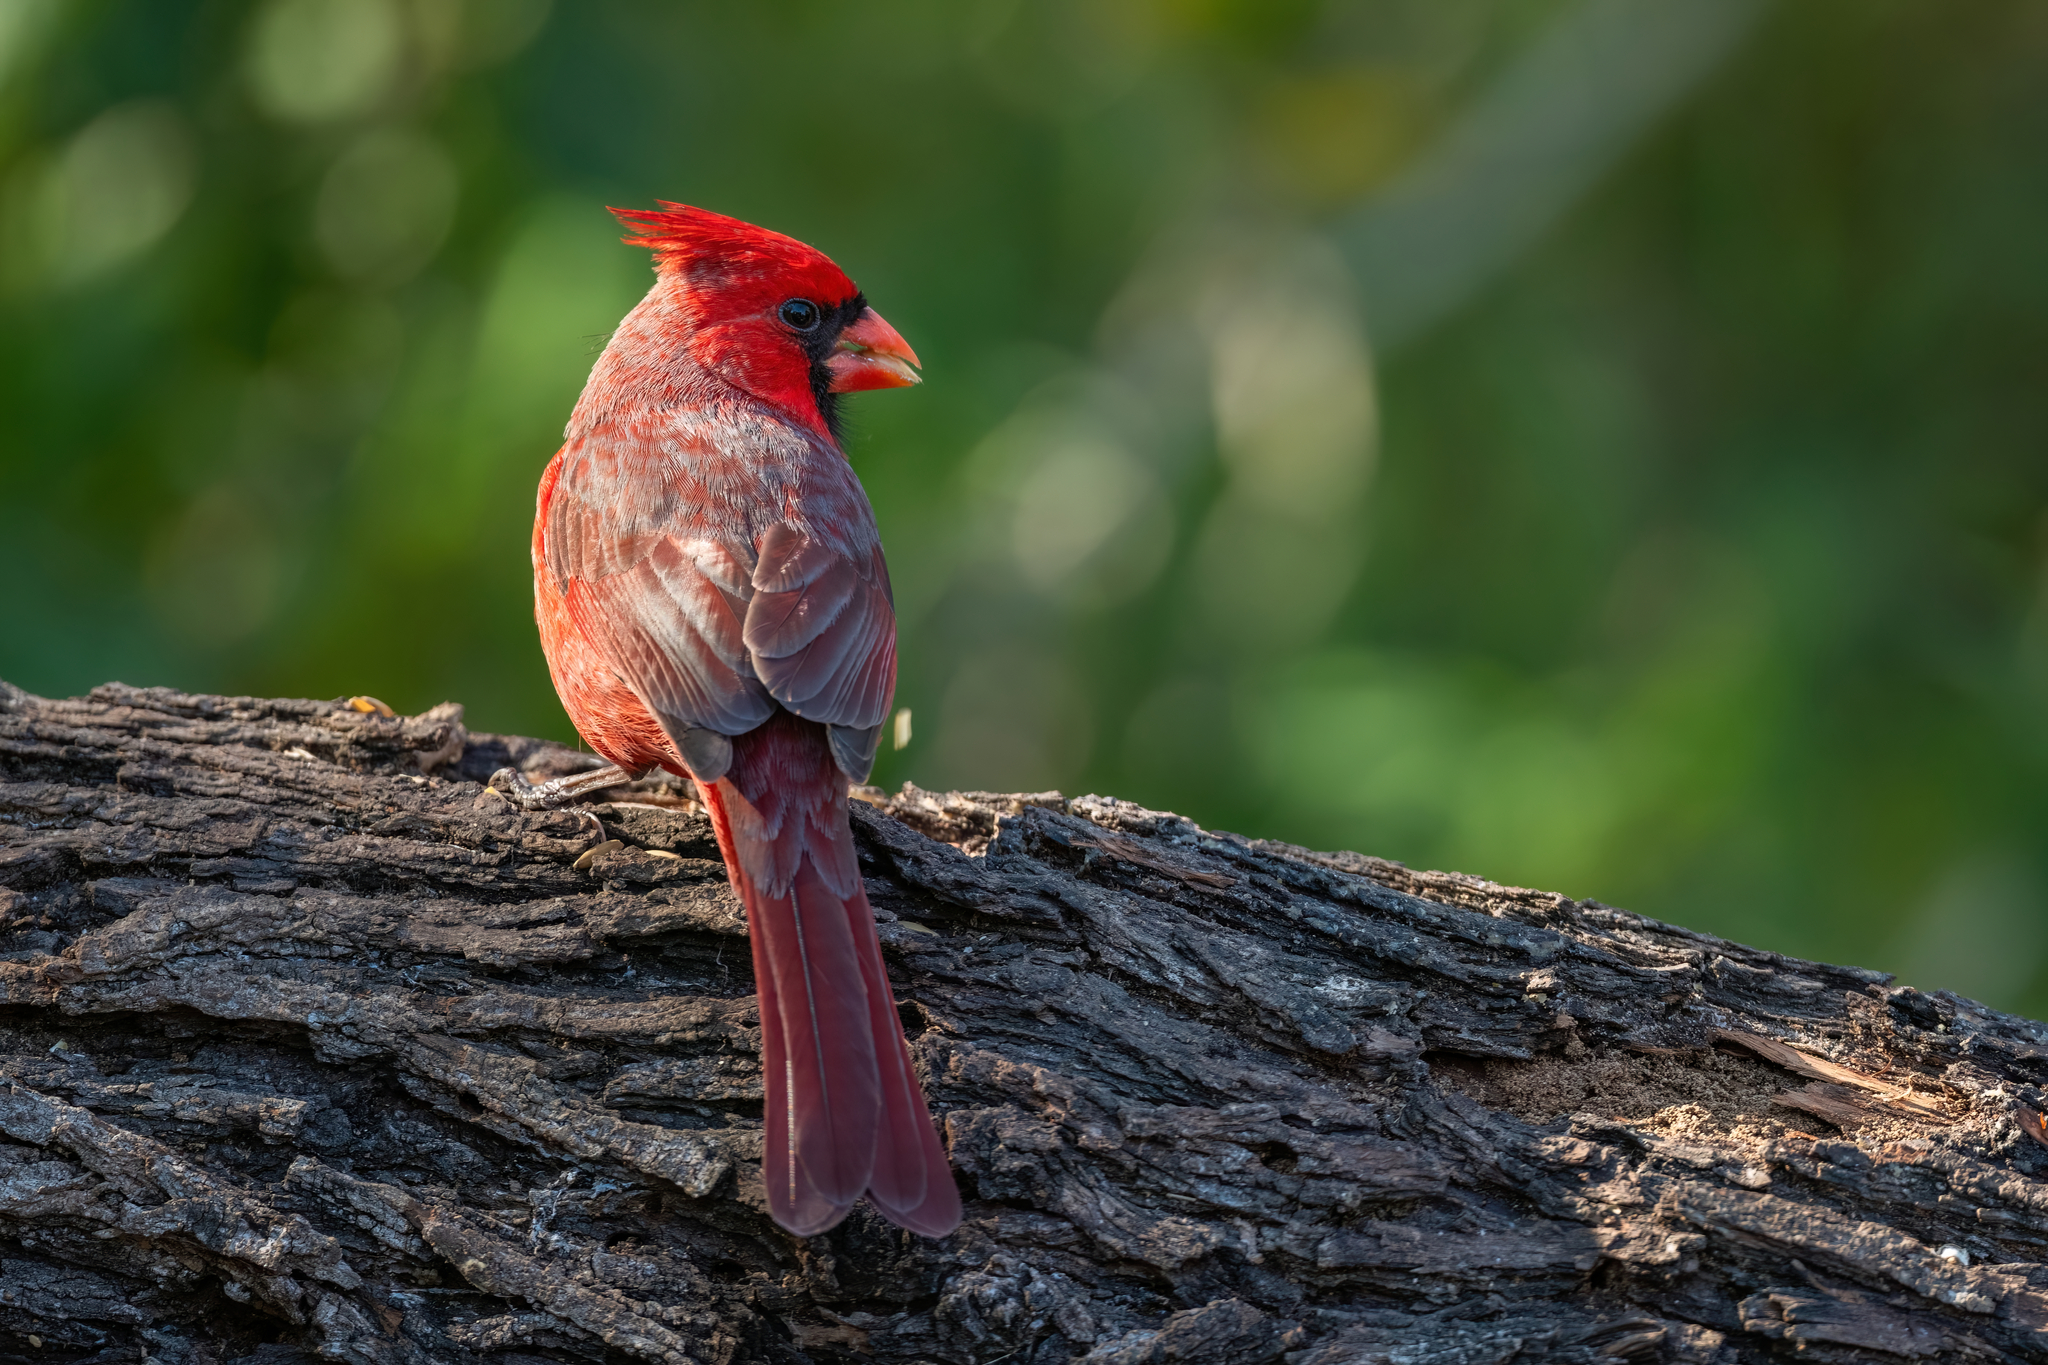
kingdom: Animalia
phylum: Chordata
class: Aves
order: Passeriformes
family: Cardinalidae
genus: Cardinalis
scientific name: Cardinalis cardinalis
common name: Northern cardinal
